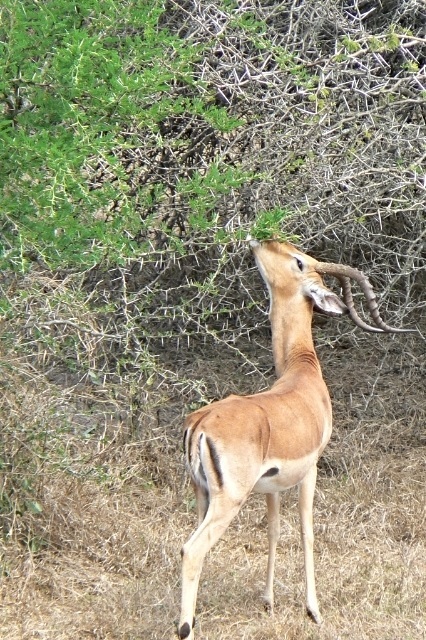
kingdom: Animalia
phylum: Chordata
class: Mammalia
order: Artiodactyla
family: Bovidae
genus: Aepyceros
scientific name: Aepyceros melampus
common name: Impala
